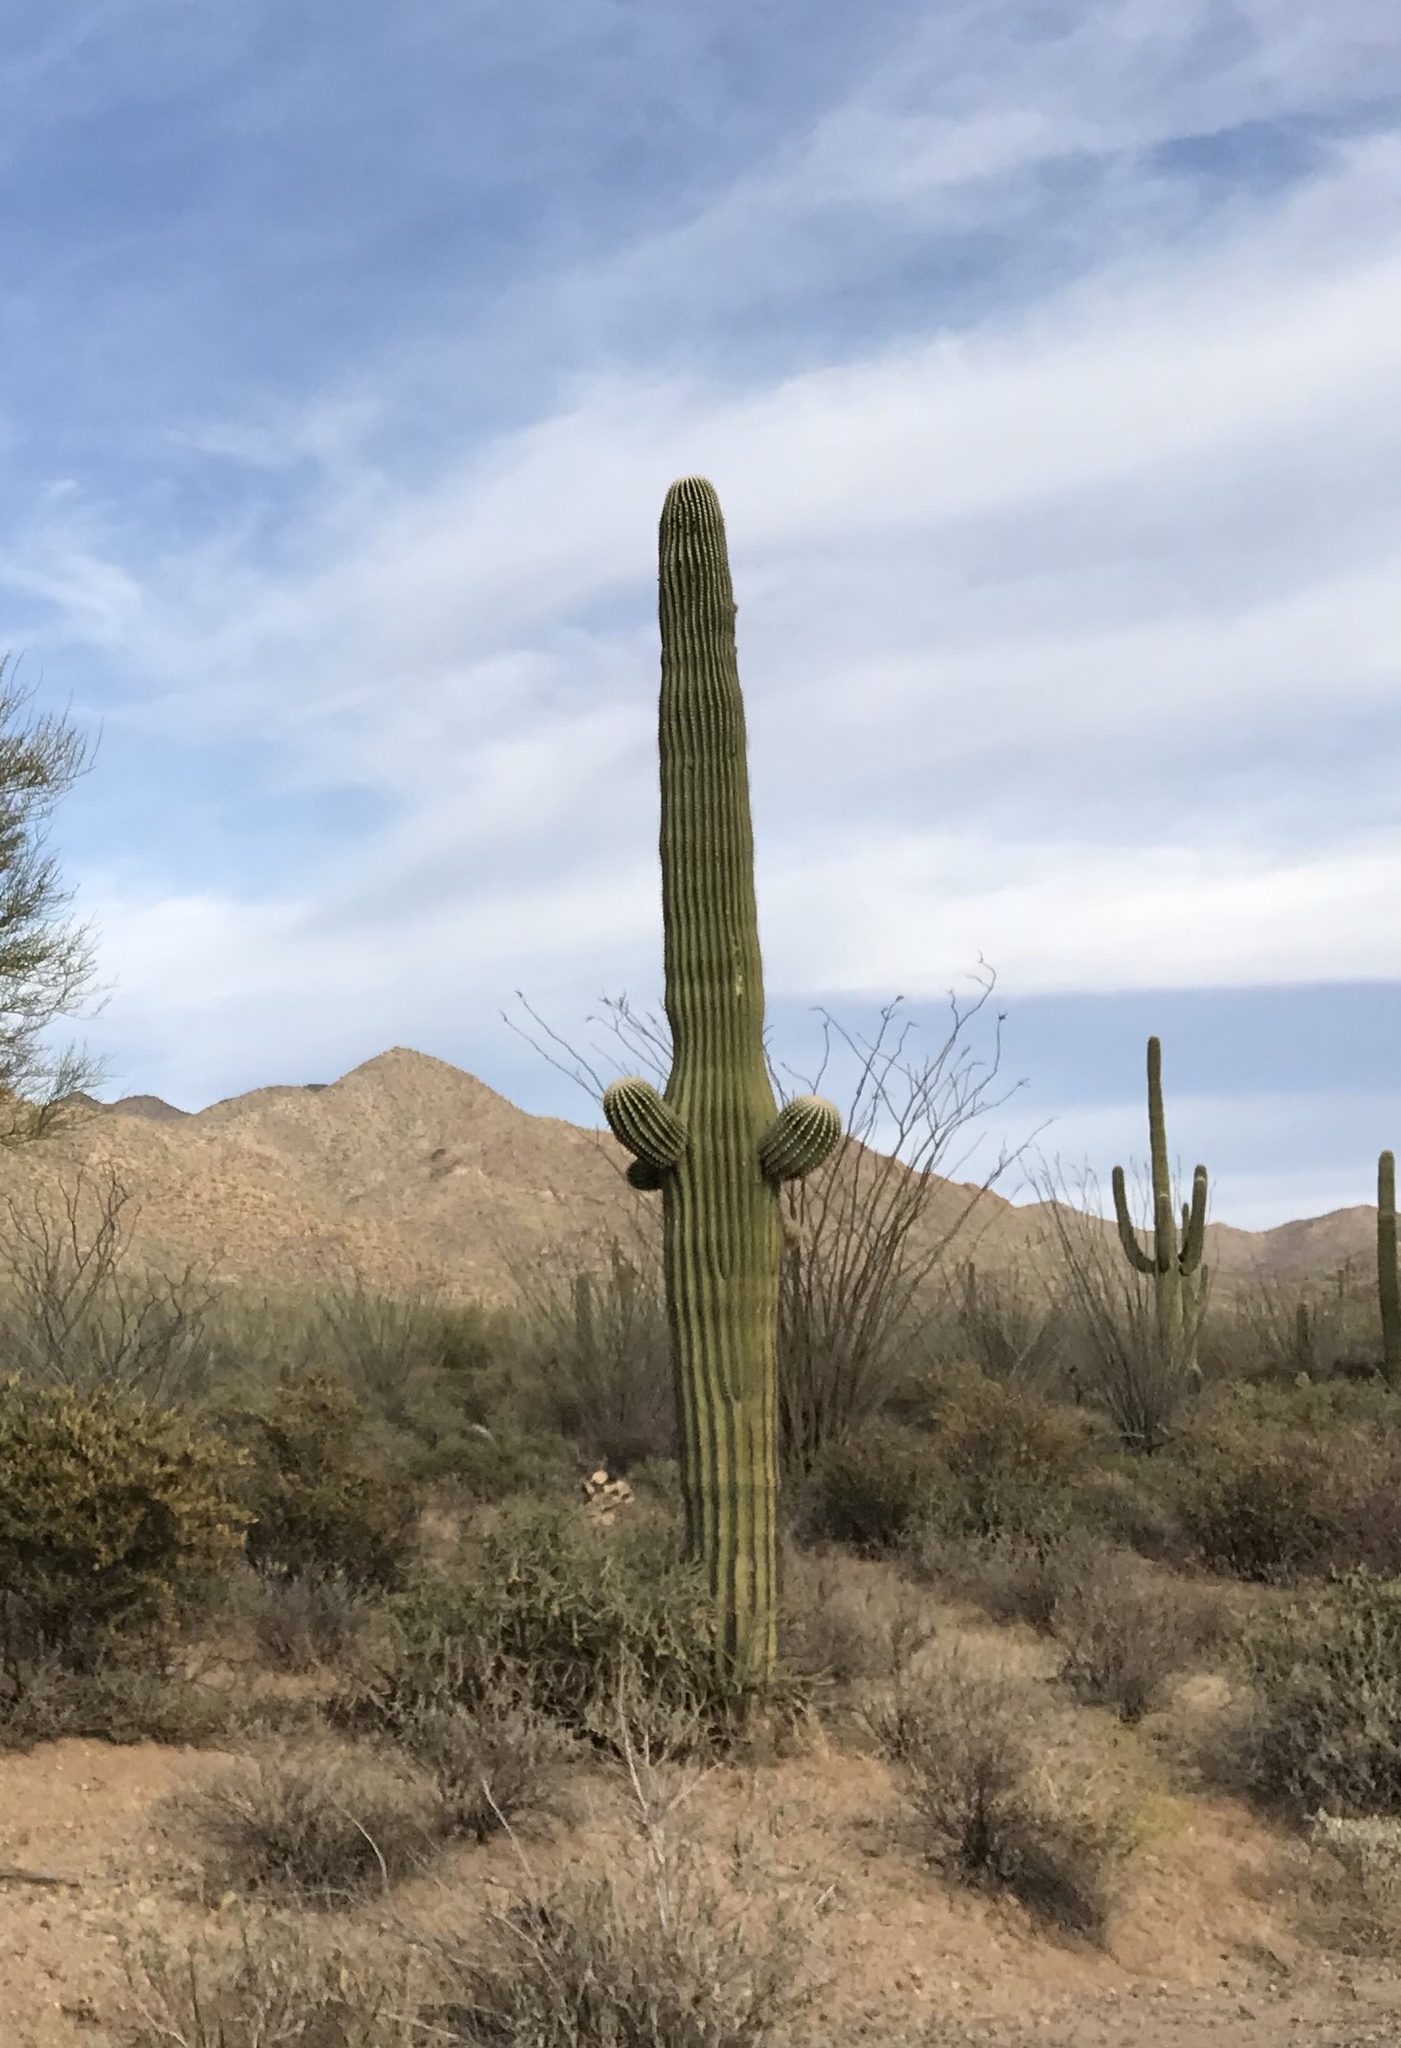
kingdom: Plantae
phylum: Tracheophyta
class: Magnoliopsida
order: Caryophyllales
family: Cactaceae
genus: Carnegiea
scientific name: Carnegiea gigantea
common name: Saguaro
